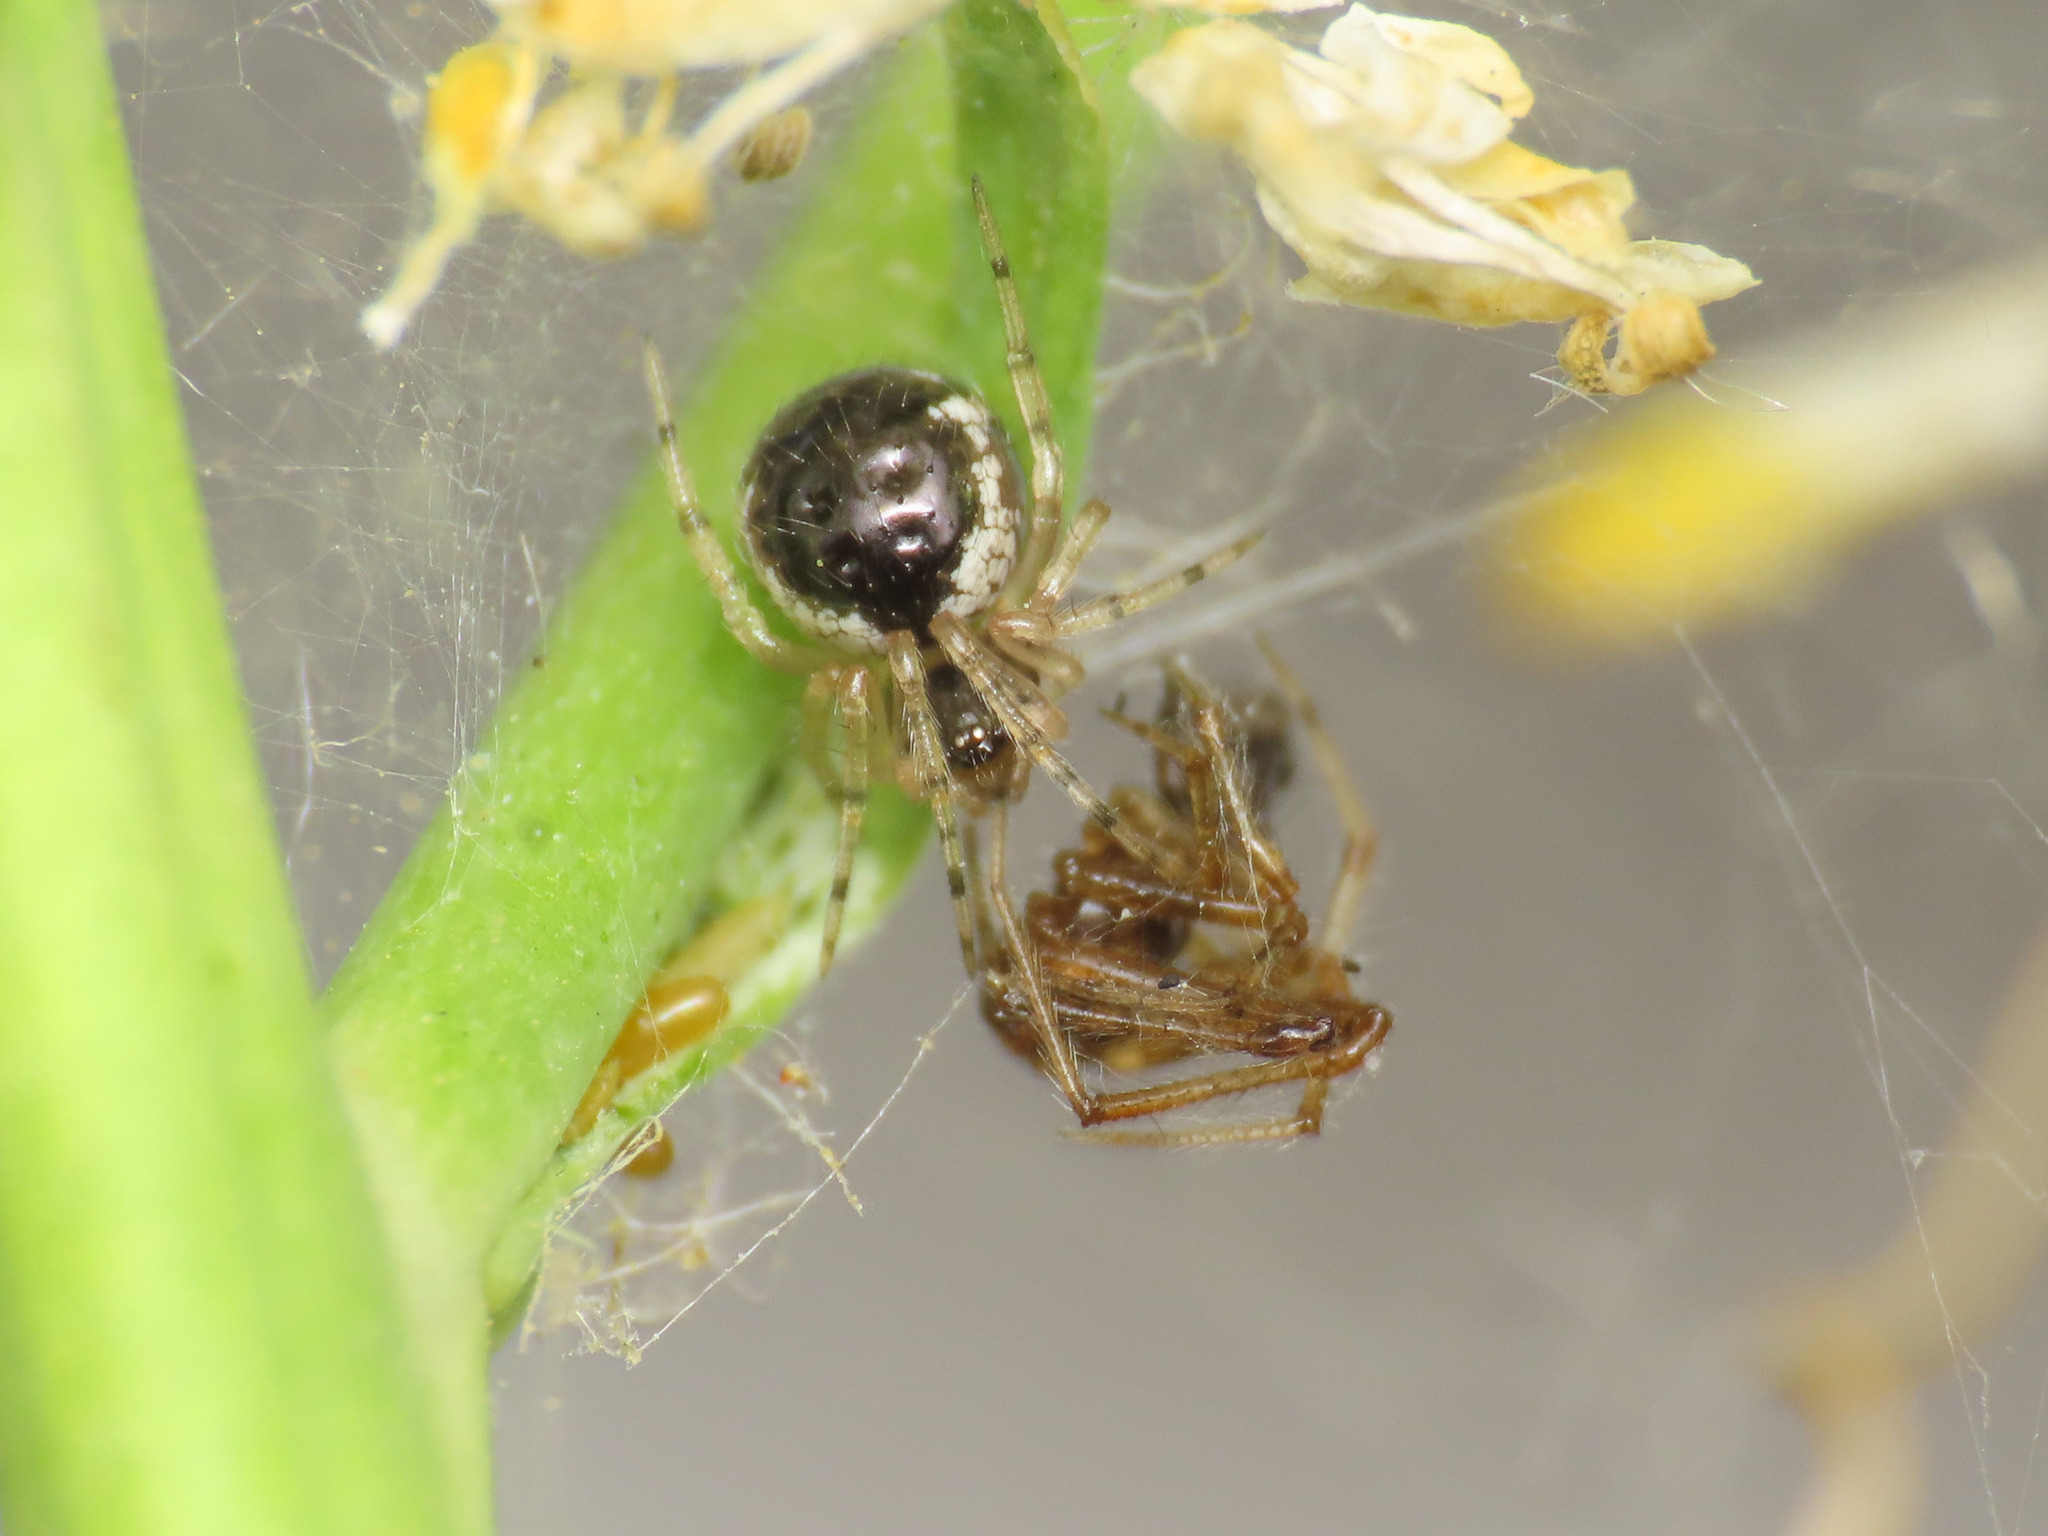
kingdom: Animalia
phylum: Arthropoda
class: Arachnida
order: Araneae
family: Theridiidae
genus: Sardinidion
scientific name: Sardinidion blackwalli
